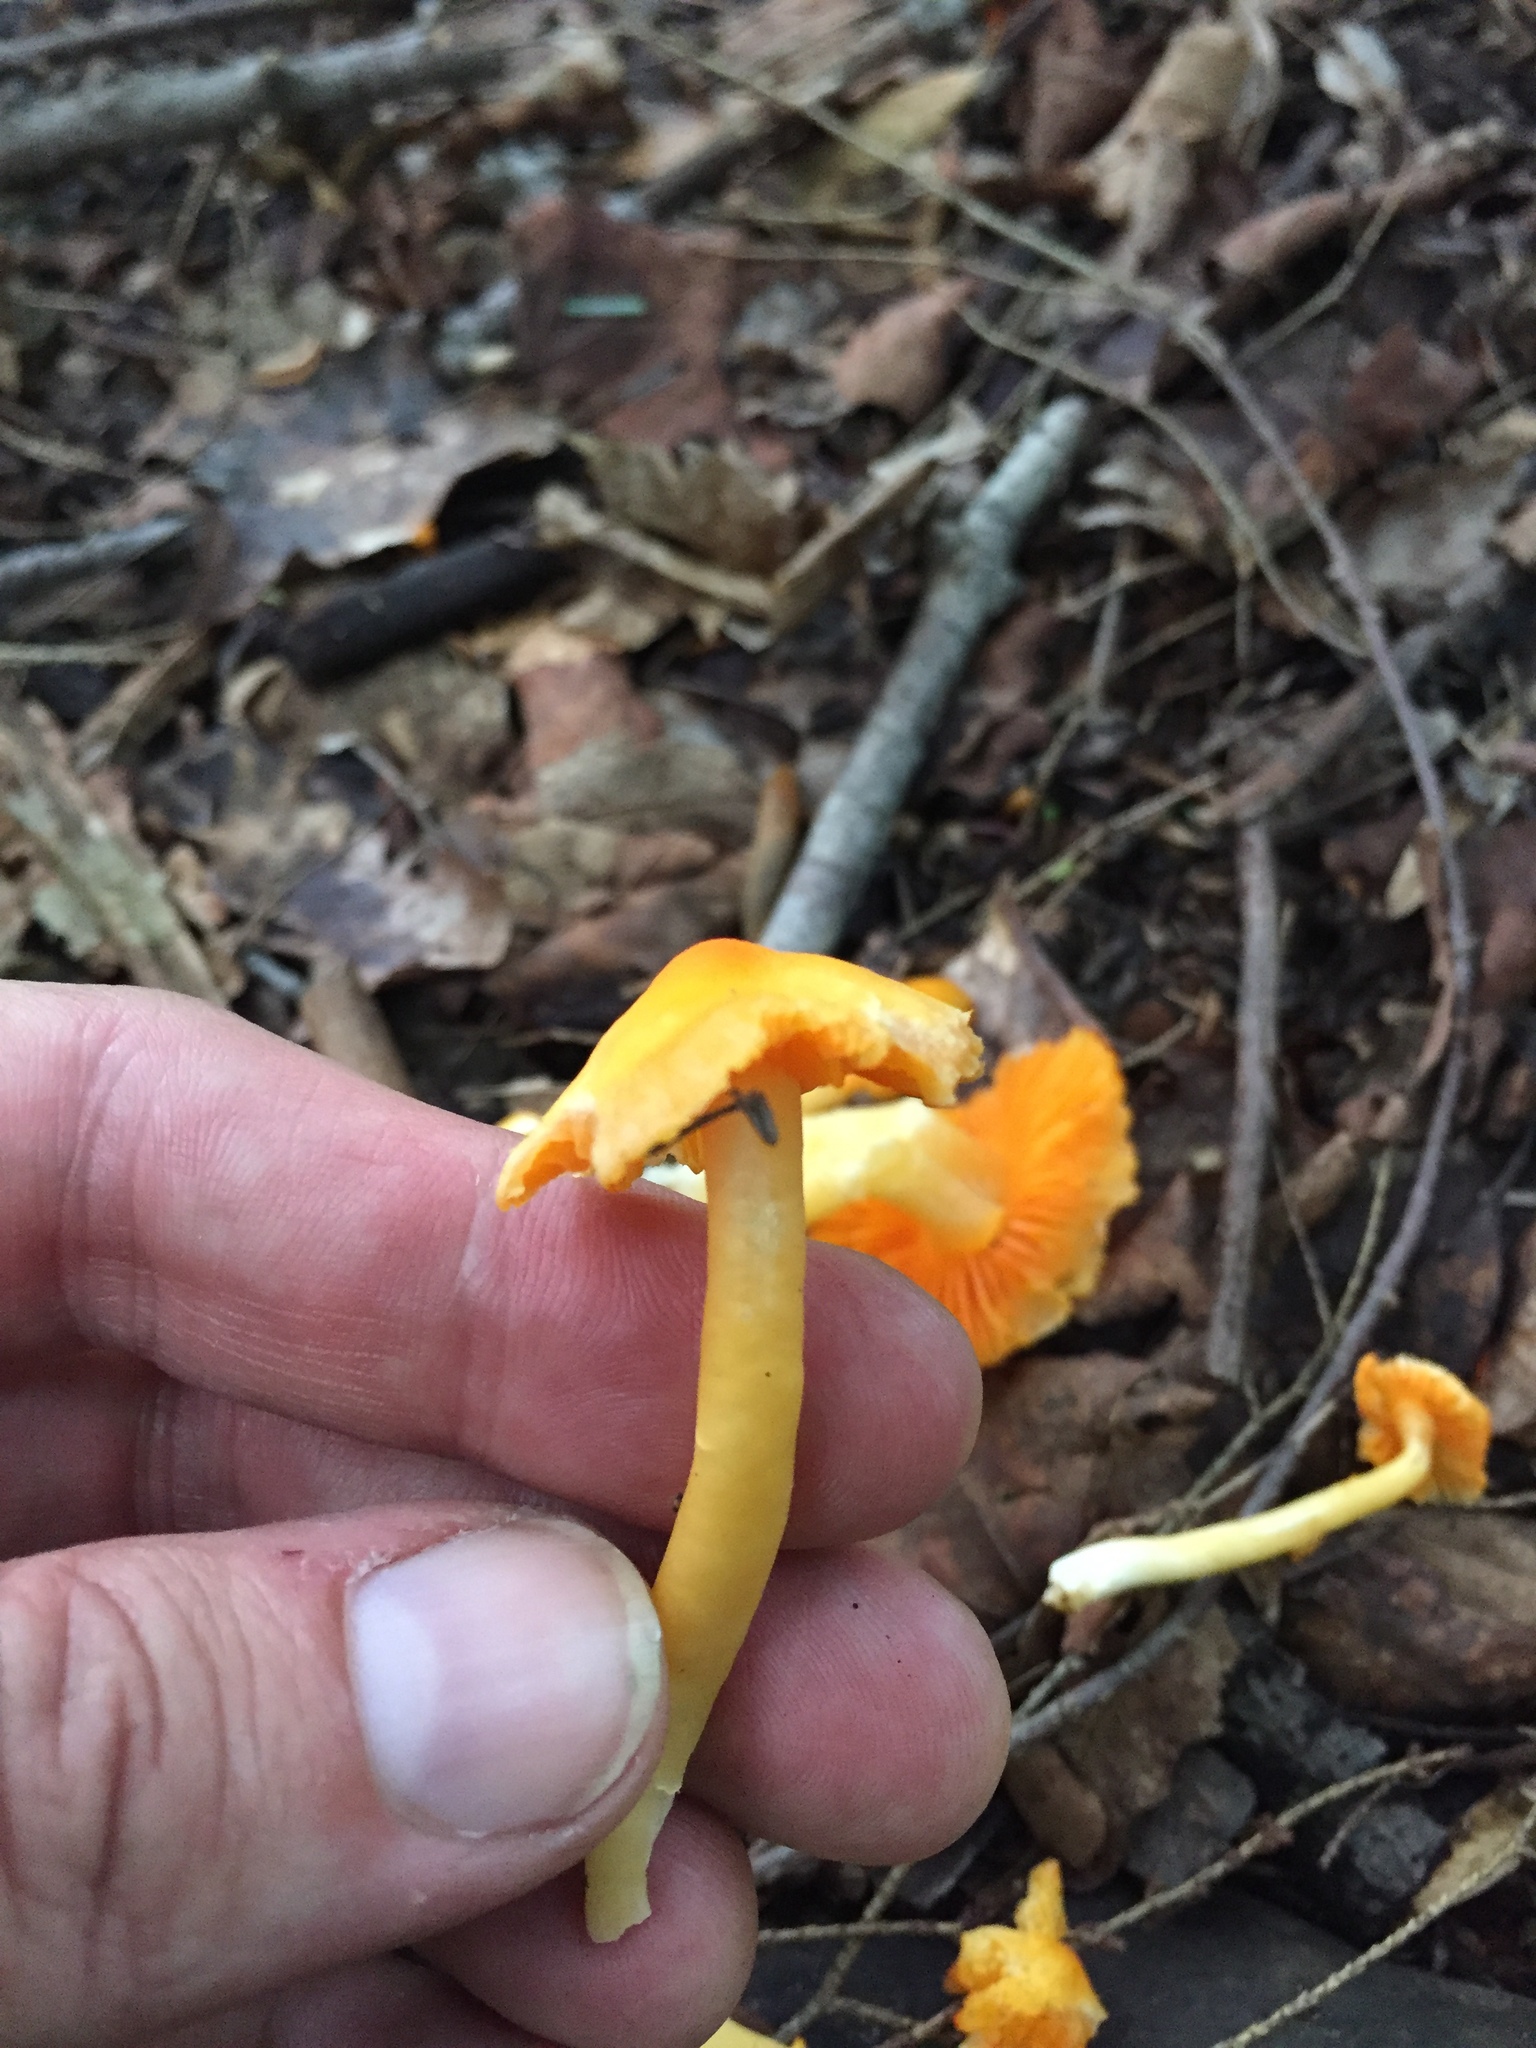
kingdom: Fungi
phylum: Basidiomycota
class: Agaricomycetes
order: Agaricales
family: Hygrophoraceae
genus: Humidicutis
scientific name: Humidicutis marginata
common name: Orange gilled waxcap
